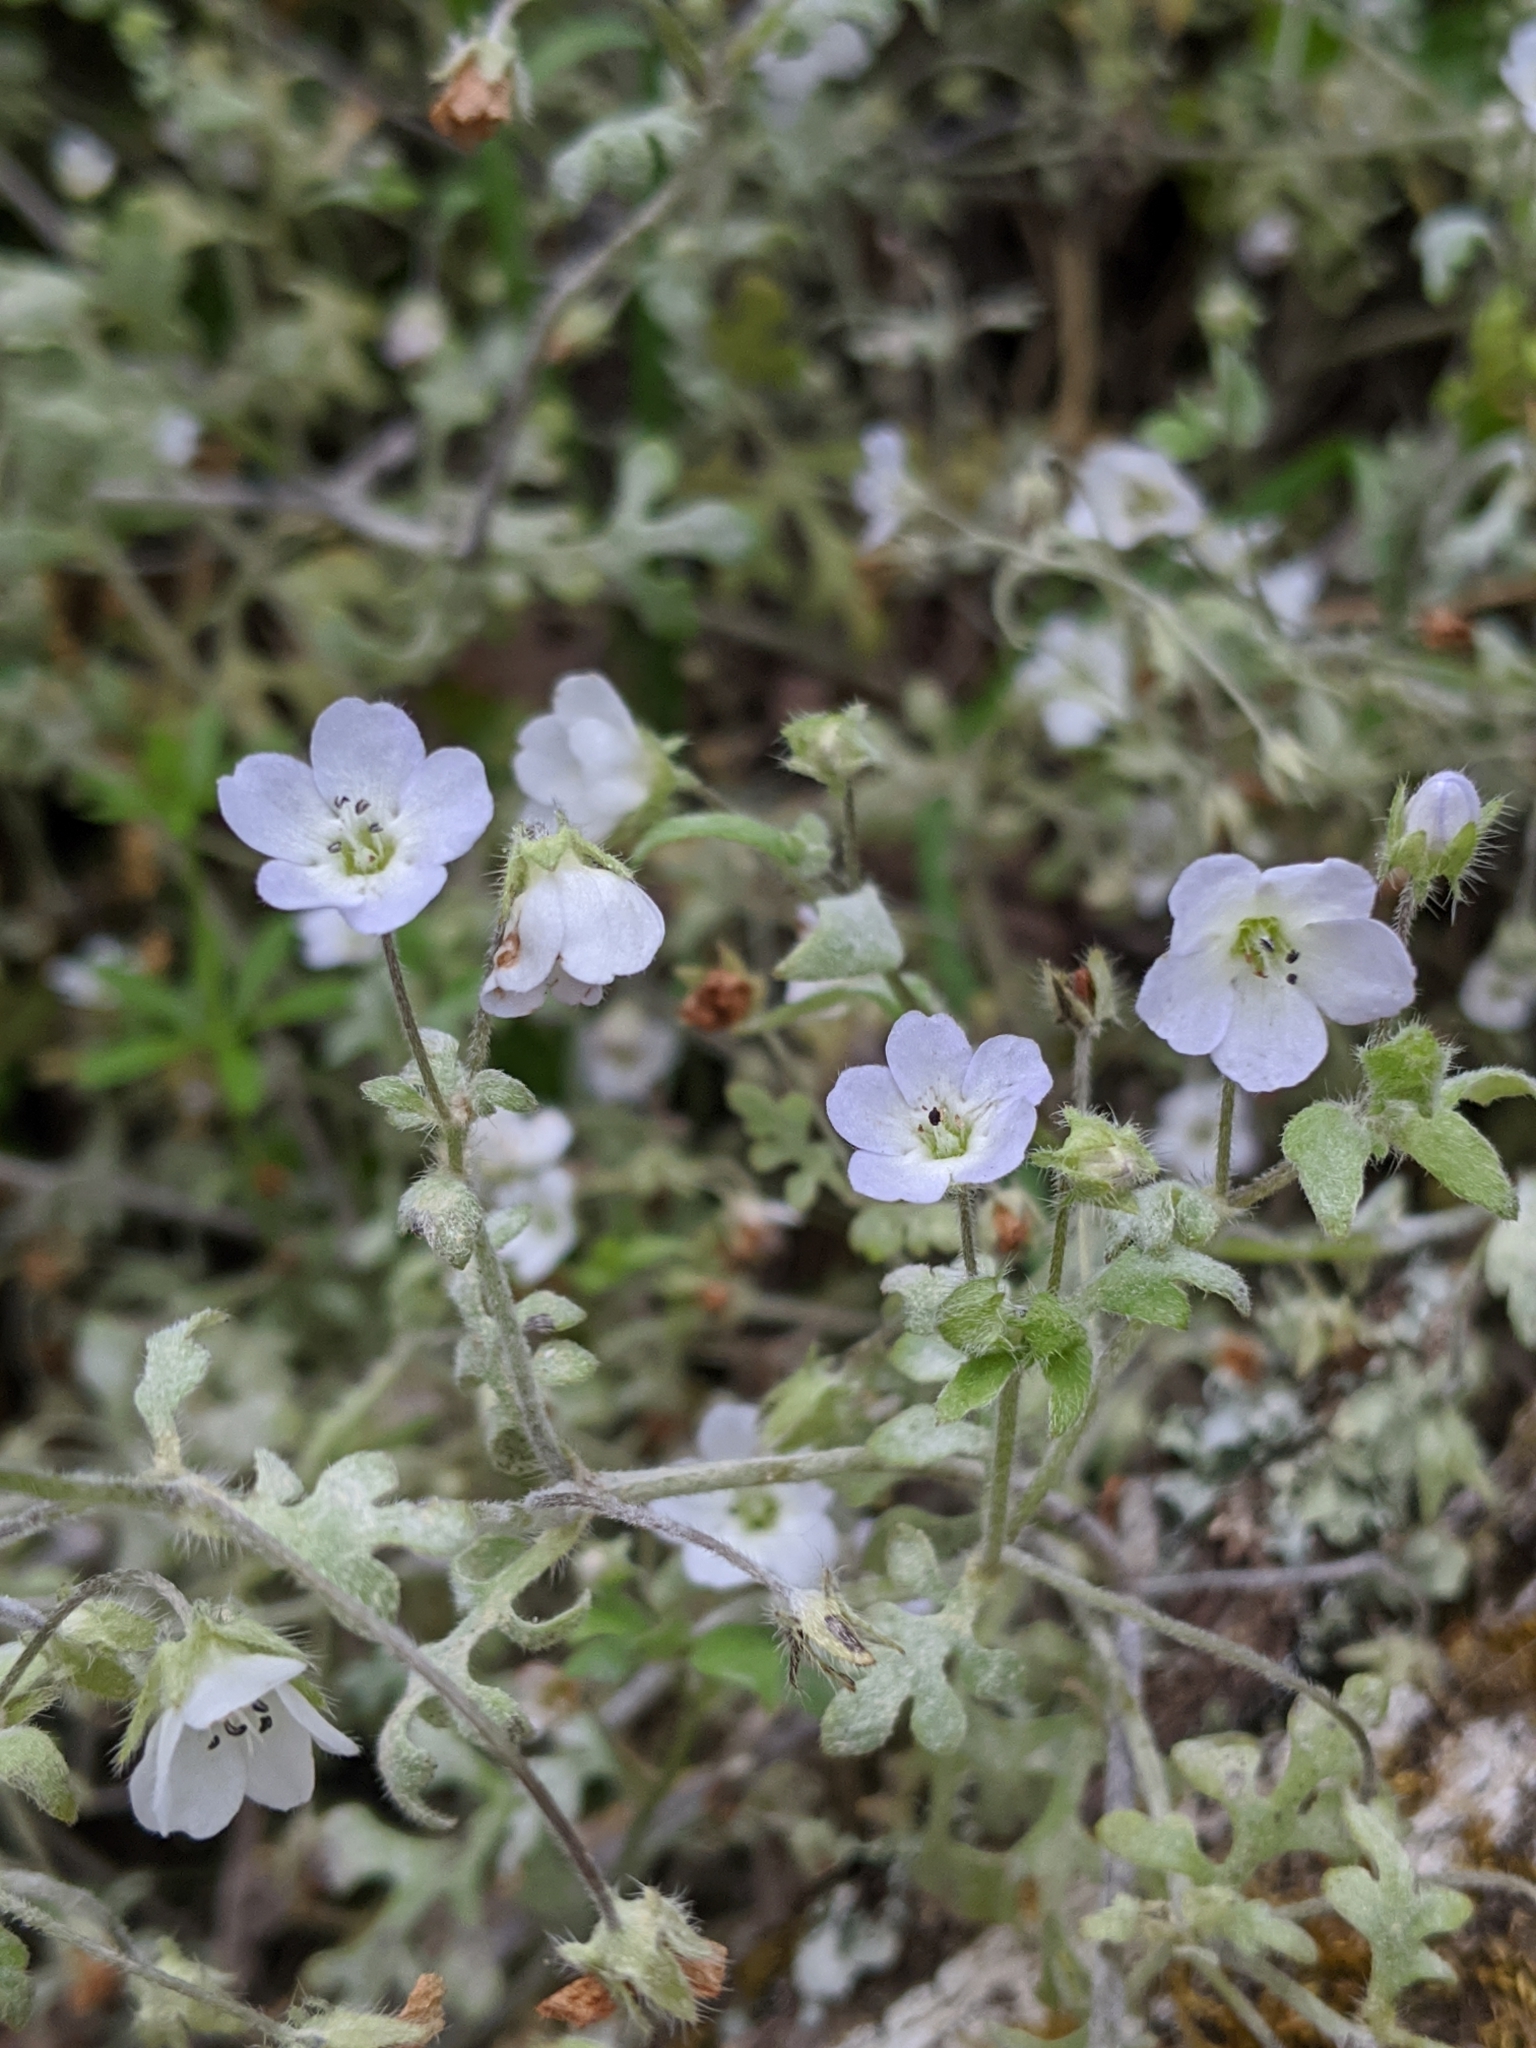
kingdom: Plantae
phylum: Tracheophyta
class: Magnoliopsida
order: Boraginales
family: Hydrophyllaceae
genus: Nemophila
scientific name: Nemophila heterophylla
